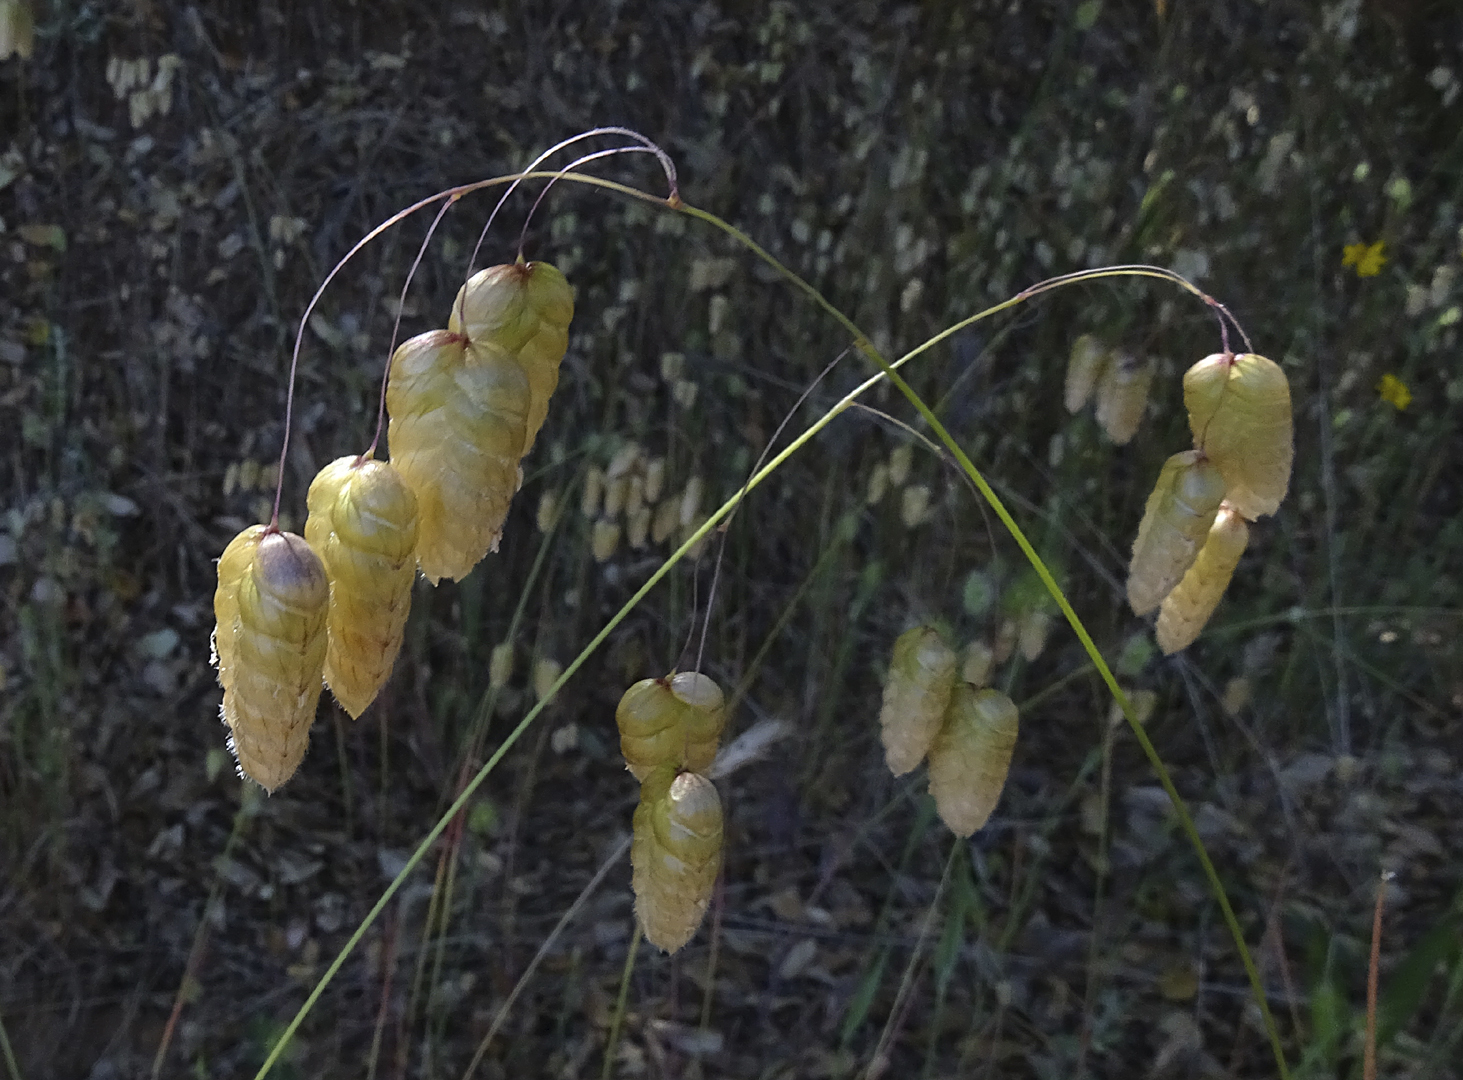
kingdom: Plantae
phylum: Tracheophyta
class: Liliopsida
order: Poales
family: Poaceae
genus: Briza
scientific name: Briza maxima
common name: Big quakinggrass
